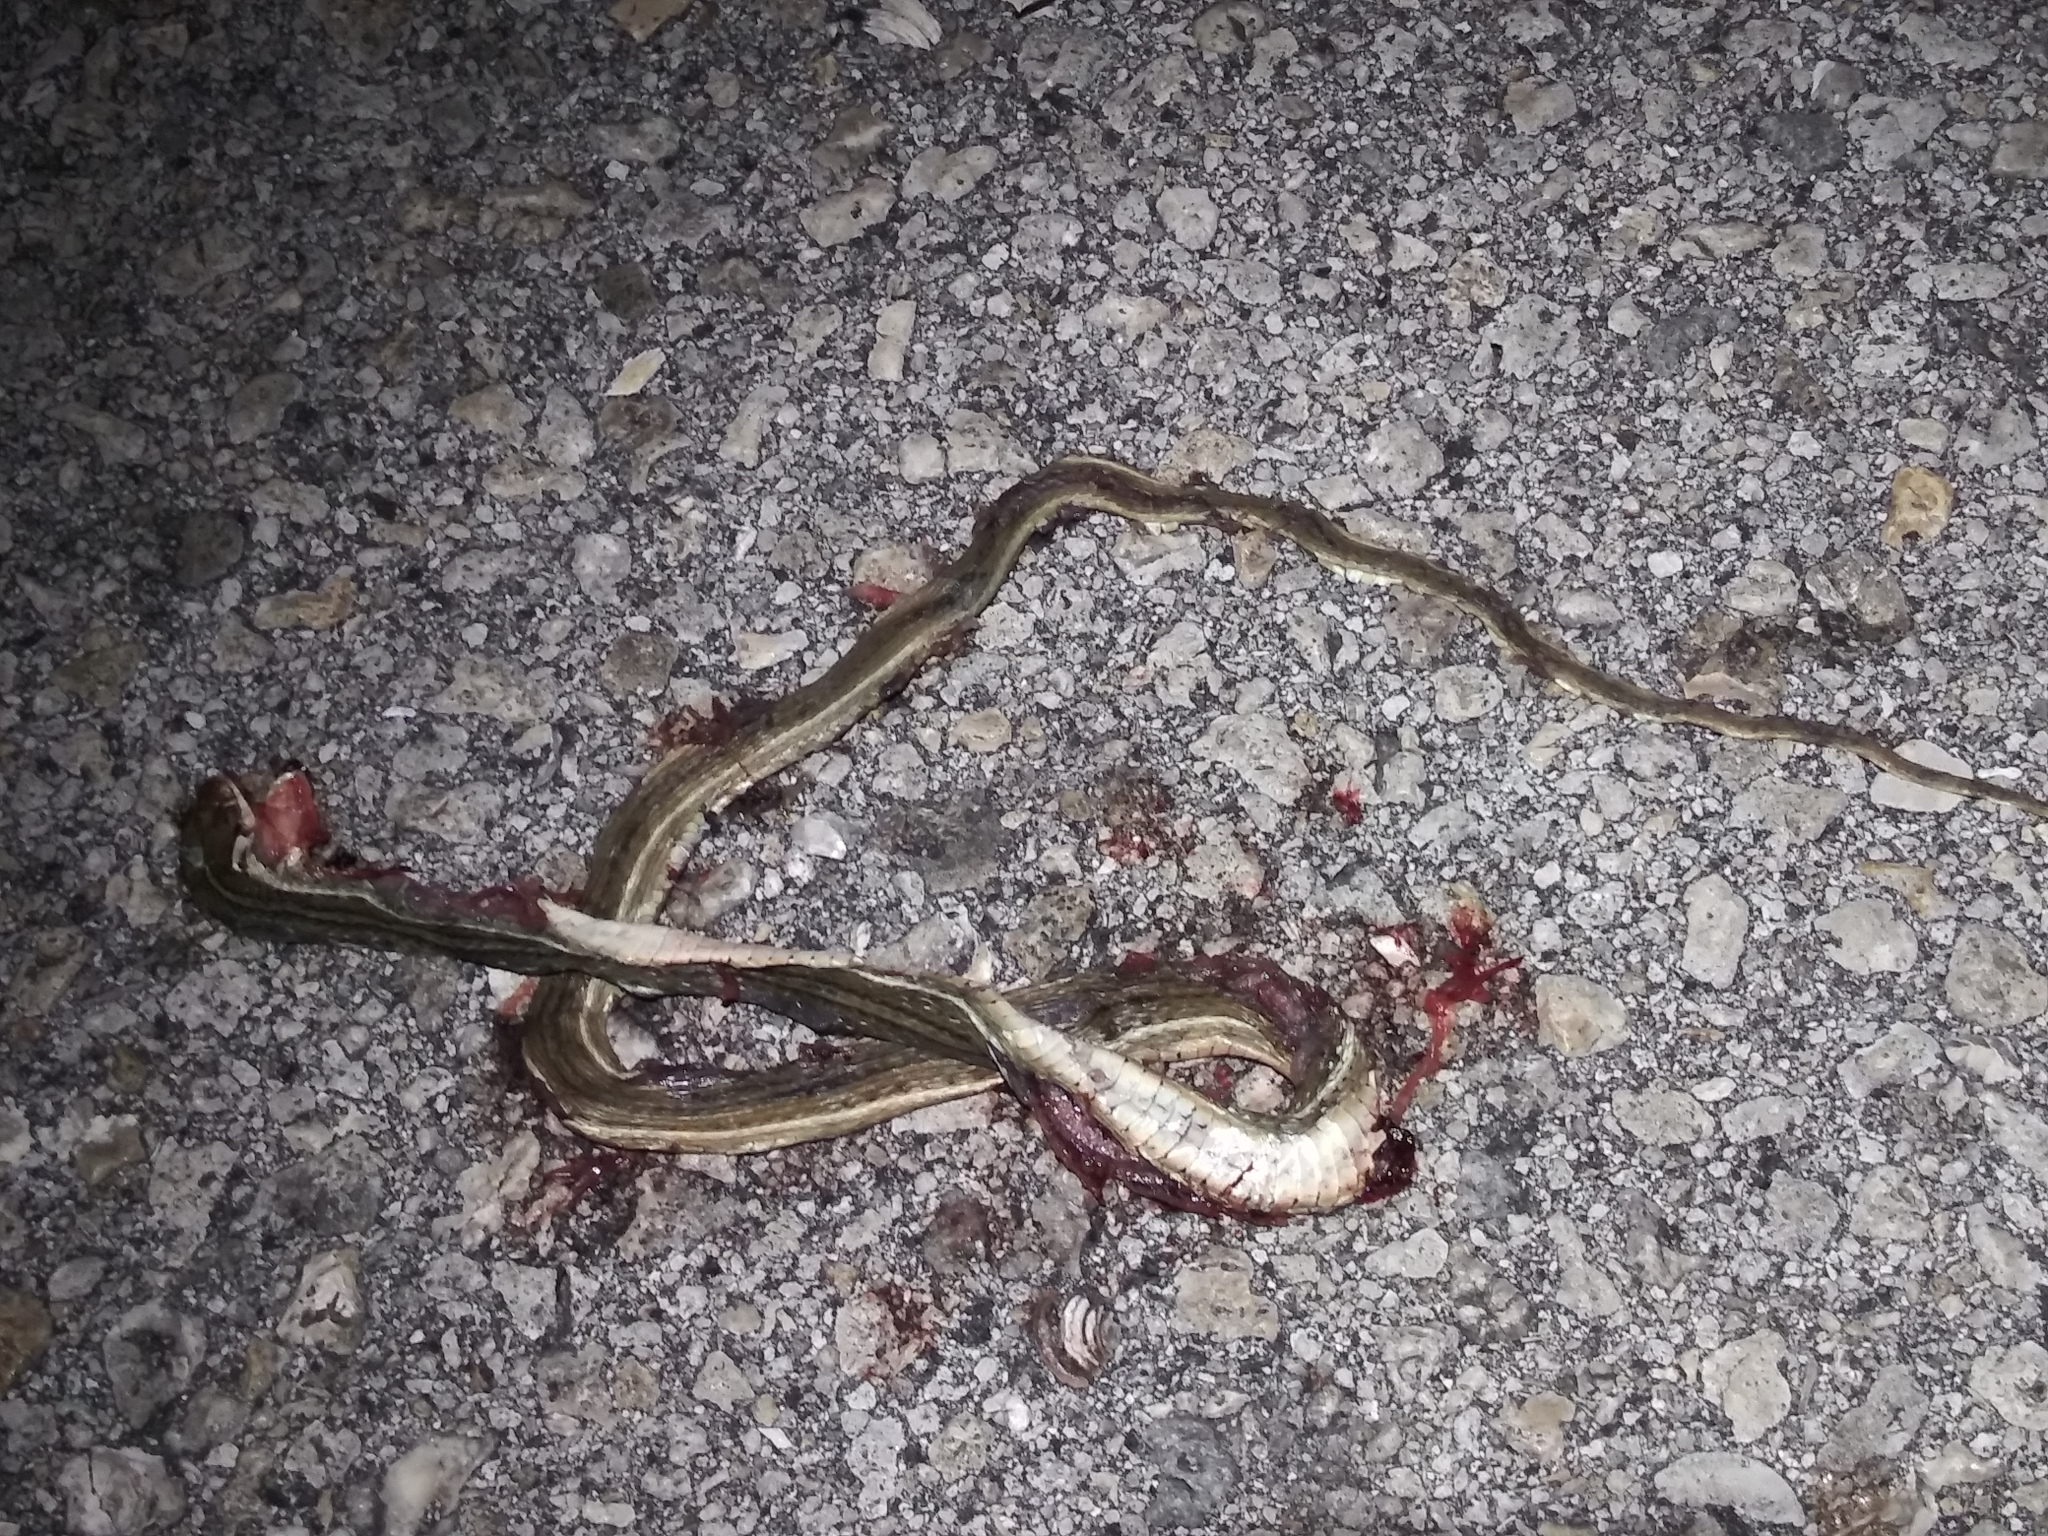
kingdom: Animalia
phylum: Chordata
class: Squamata
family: Colubridae
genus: Thamnophis
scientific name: Thamnophis saurita
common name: Eastern ribbonsnake
